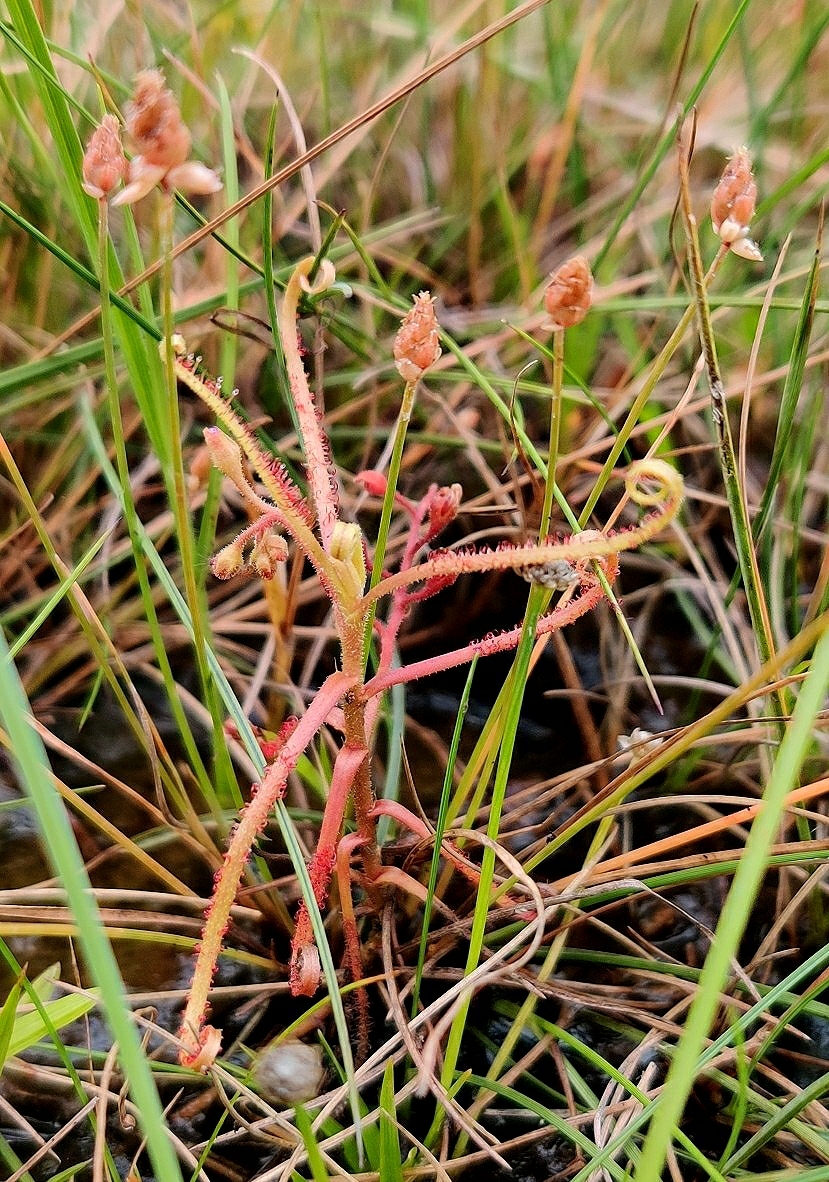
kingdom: Plantae
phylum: Tracheophyta
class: Magnoliopsida
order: Caryophyllales
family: Droseraceae
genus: Drosera
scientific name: Drosera indica
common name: Indian sundew
